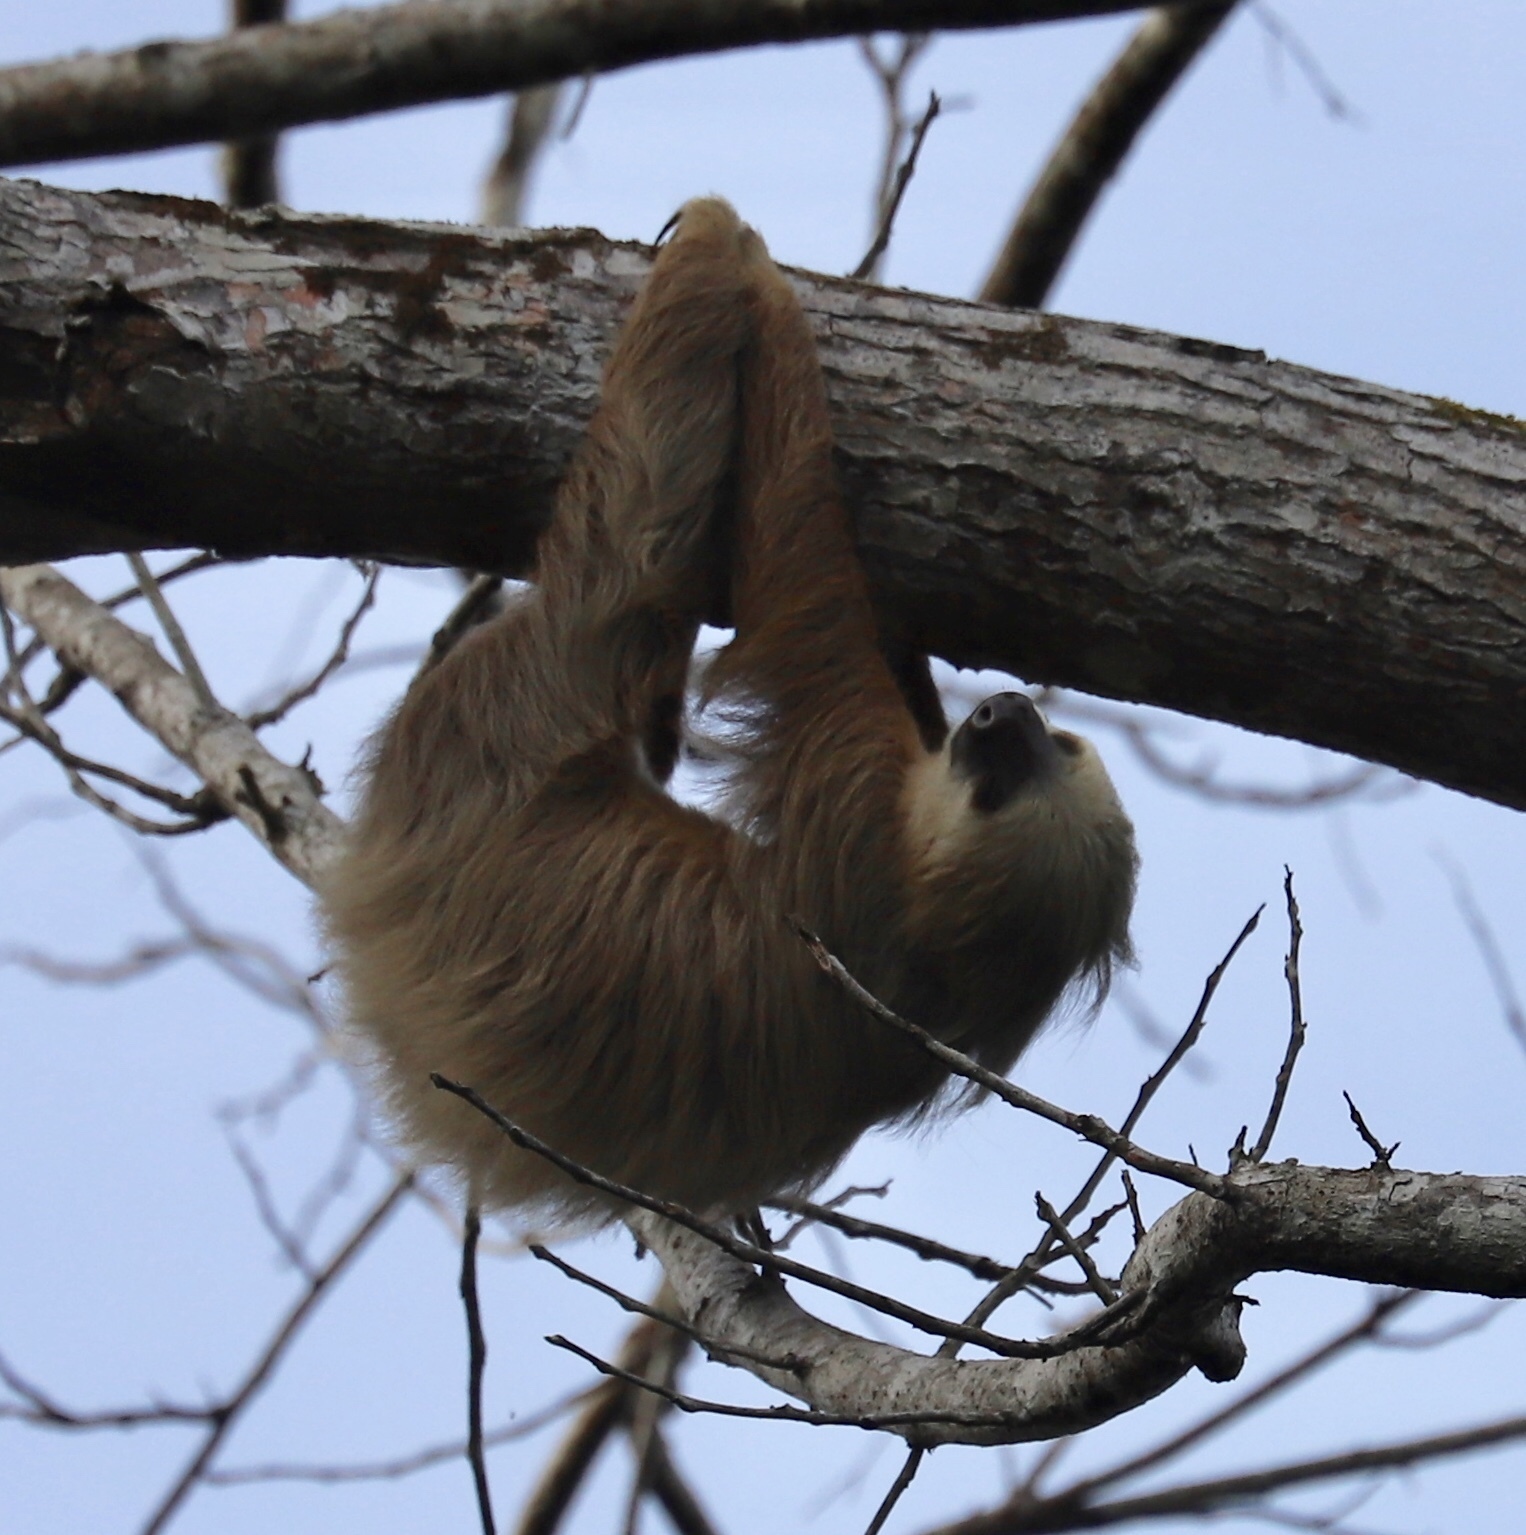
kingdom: Animalia
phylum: Chordata
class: Mammalia
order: Pilosa
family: Megalonychidae
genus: Choloepus
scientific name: Choloepus hoffmanni
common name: Hoffmann's two-toed sloth
